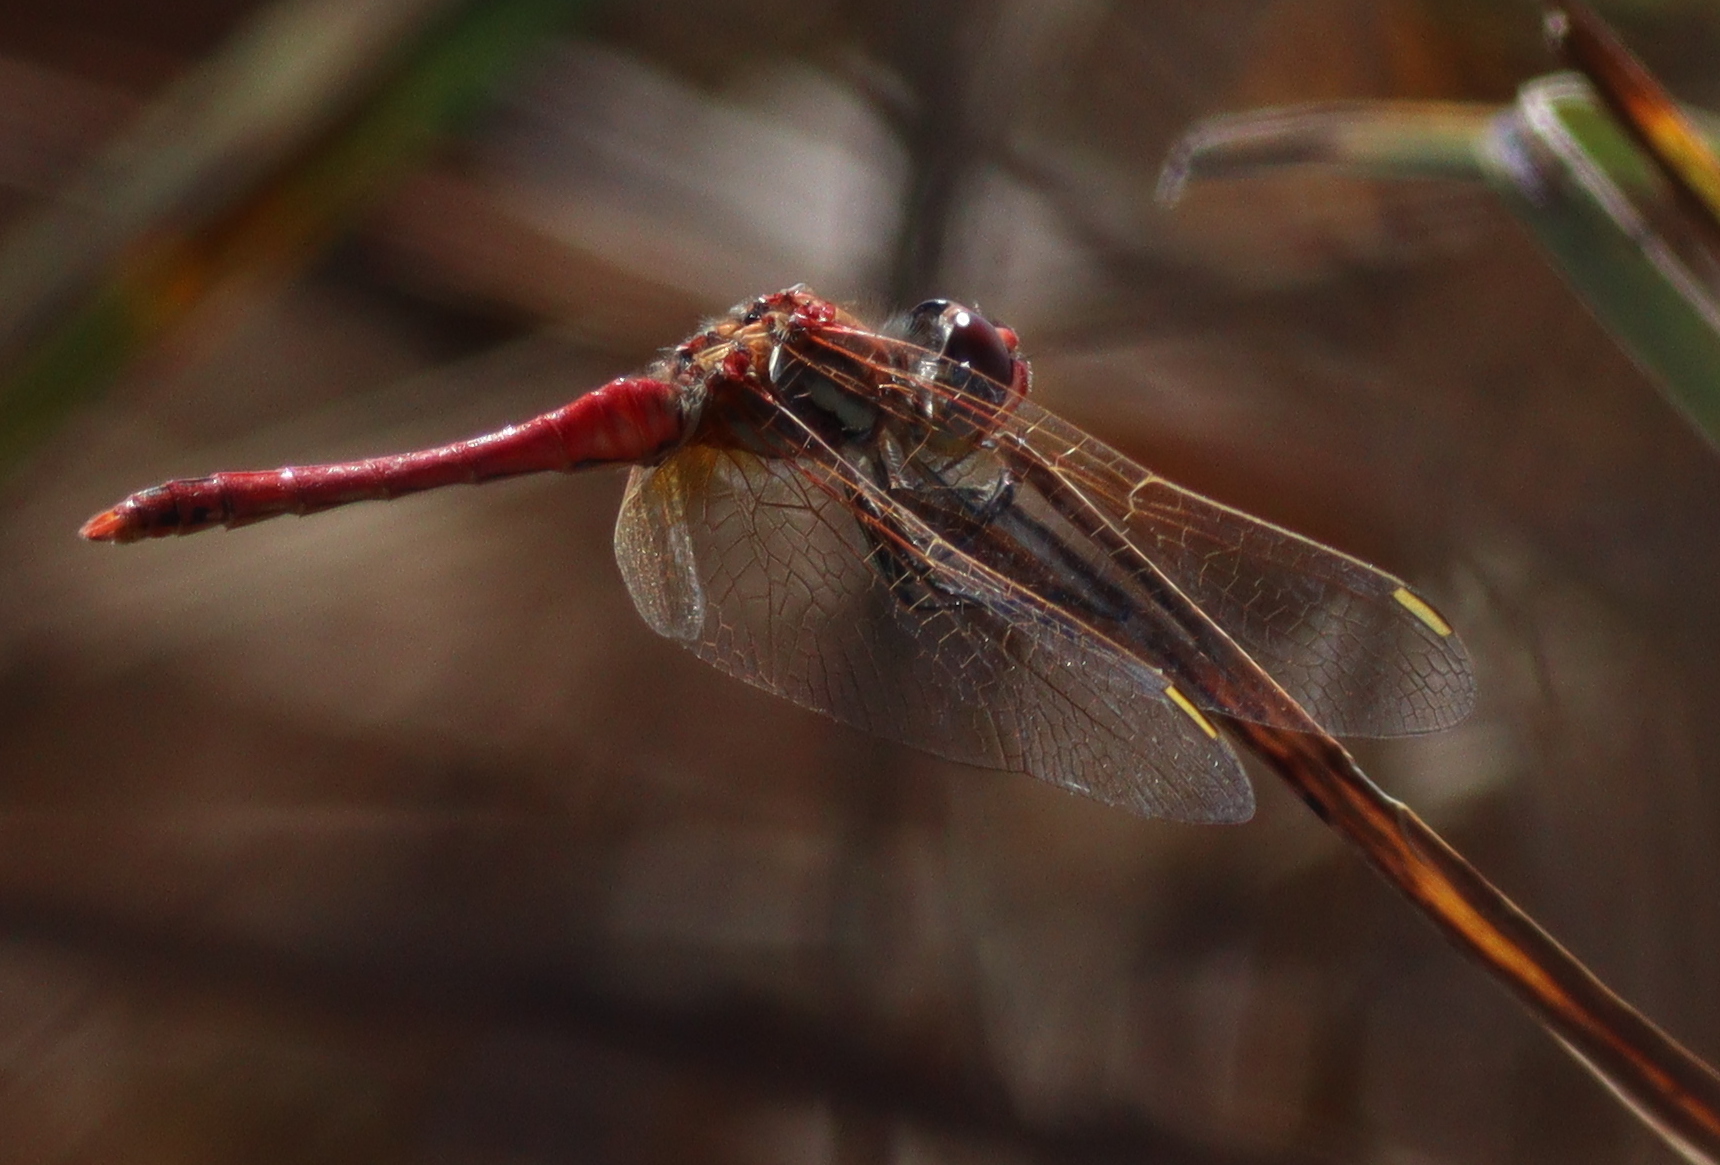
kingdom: Animalia
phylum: Arthropoda
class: Insecta
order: Odonata
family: Libellulidae
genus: Sympetrum
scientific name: Sympetrum fonscolombii
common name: Red-veined darter
